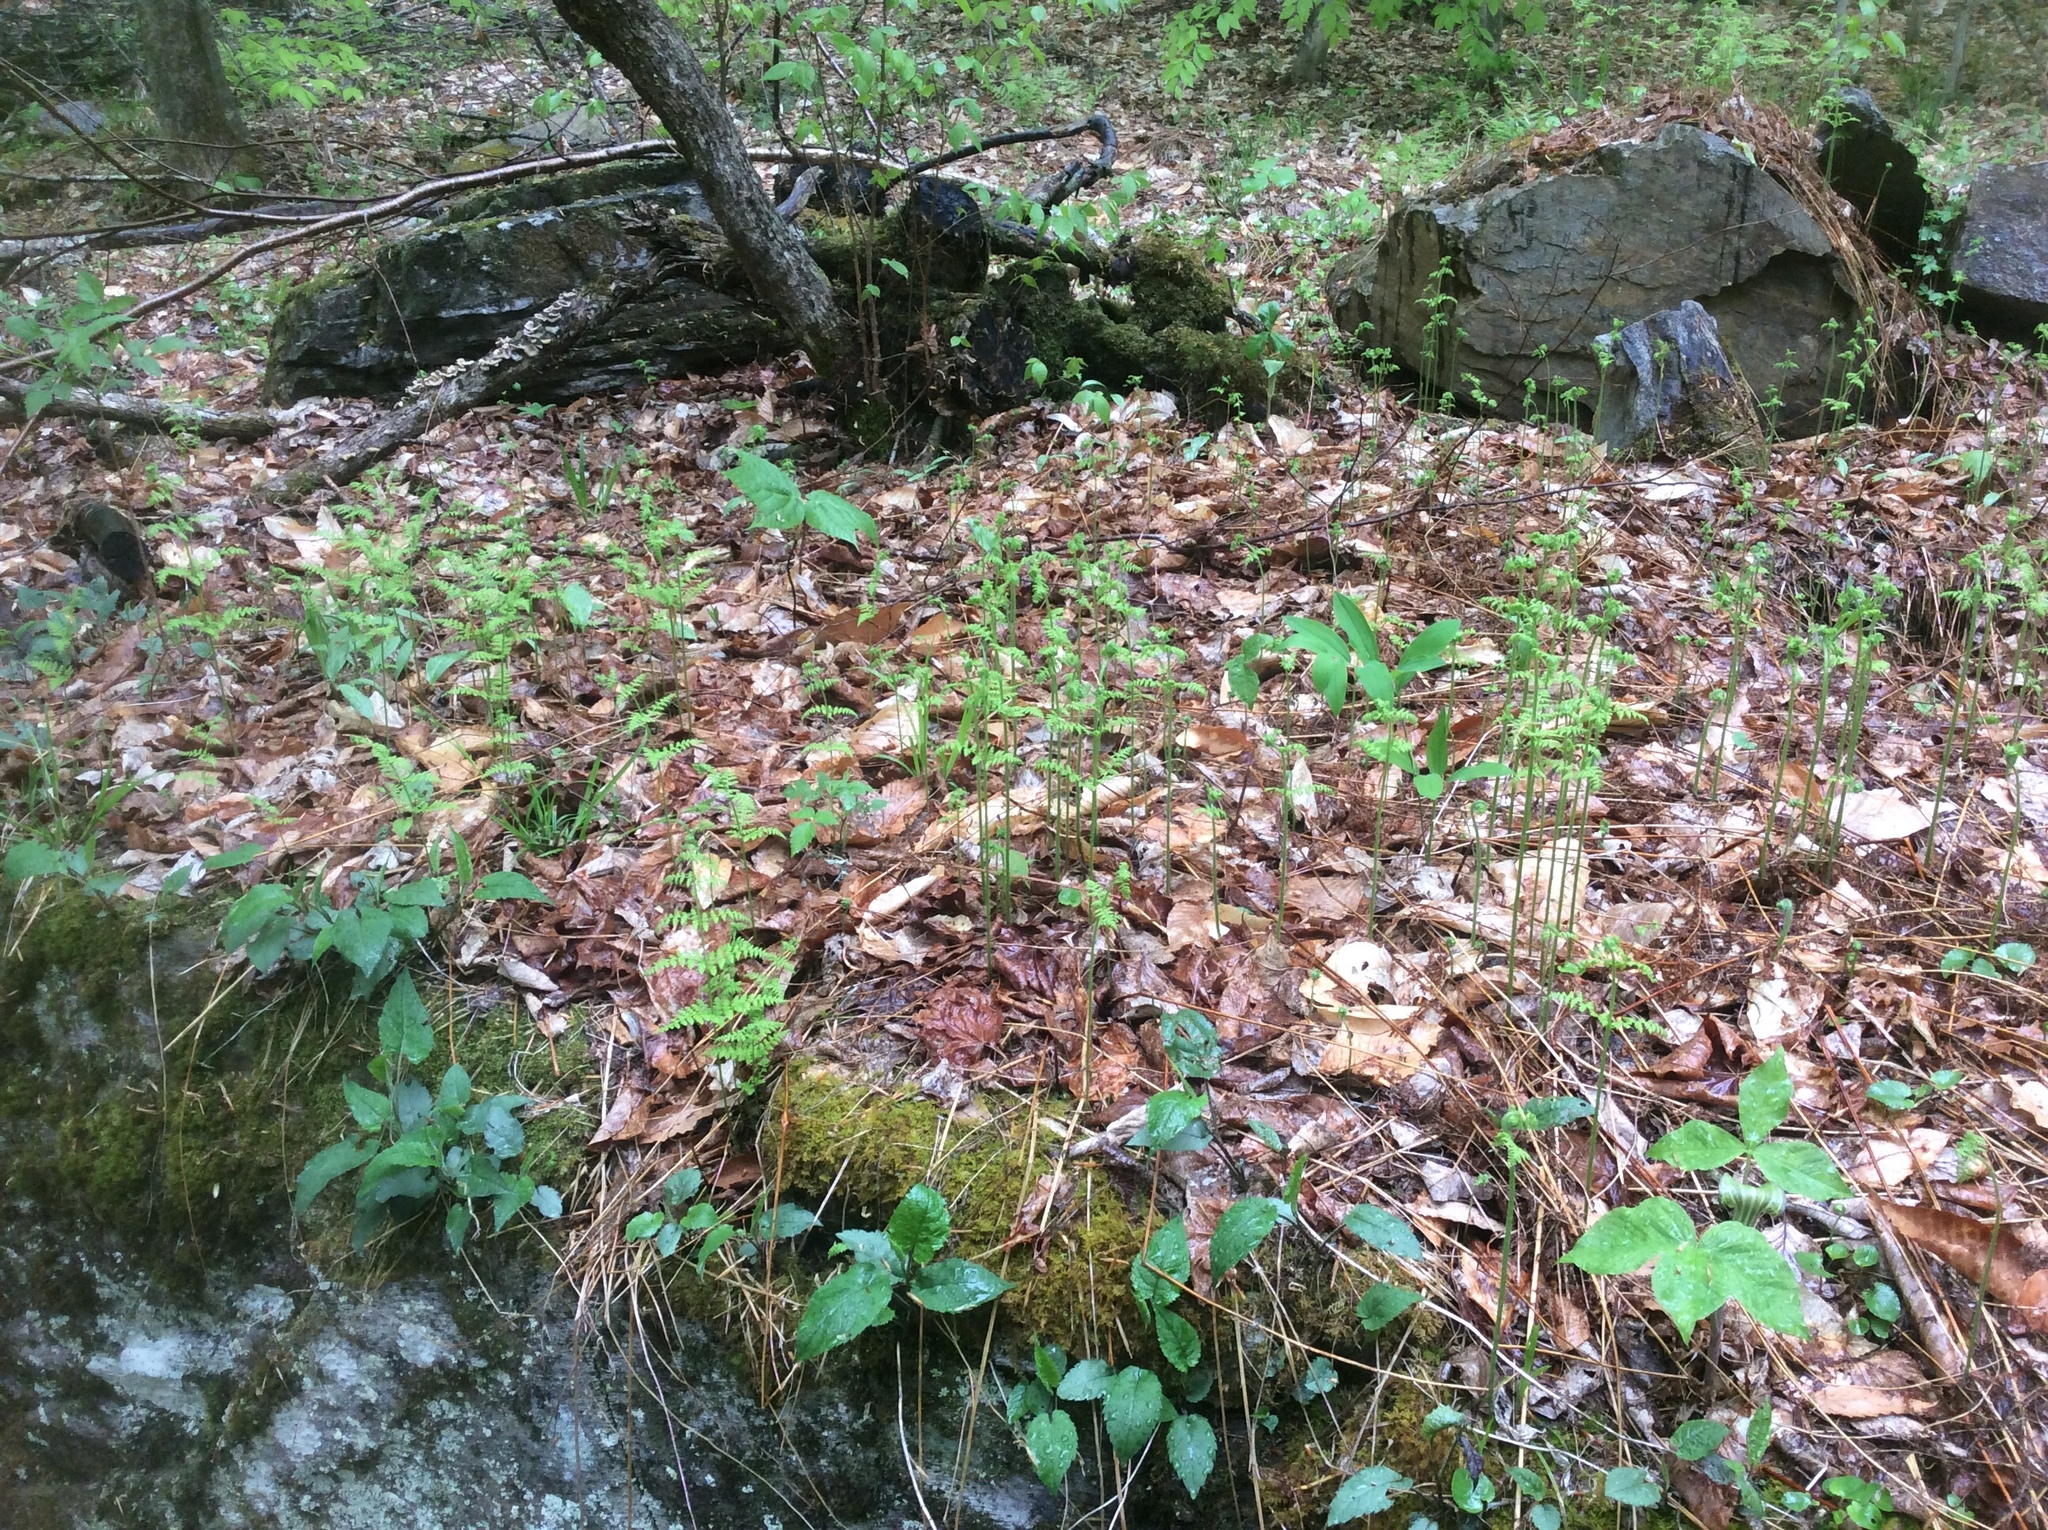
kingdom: Plantae
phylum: Tracheophyta
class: Magnoliopsida
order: Sapindales
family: Sapindaceae
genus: Acer
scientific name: Acer pensylvanicum
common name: Moosewood
